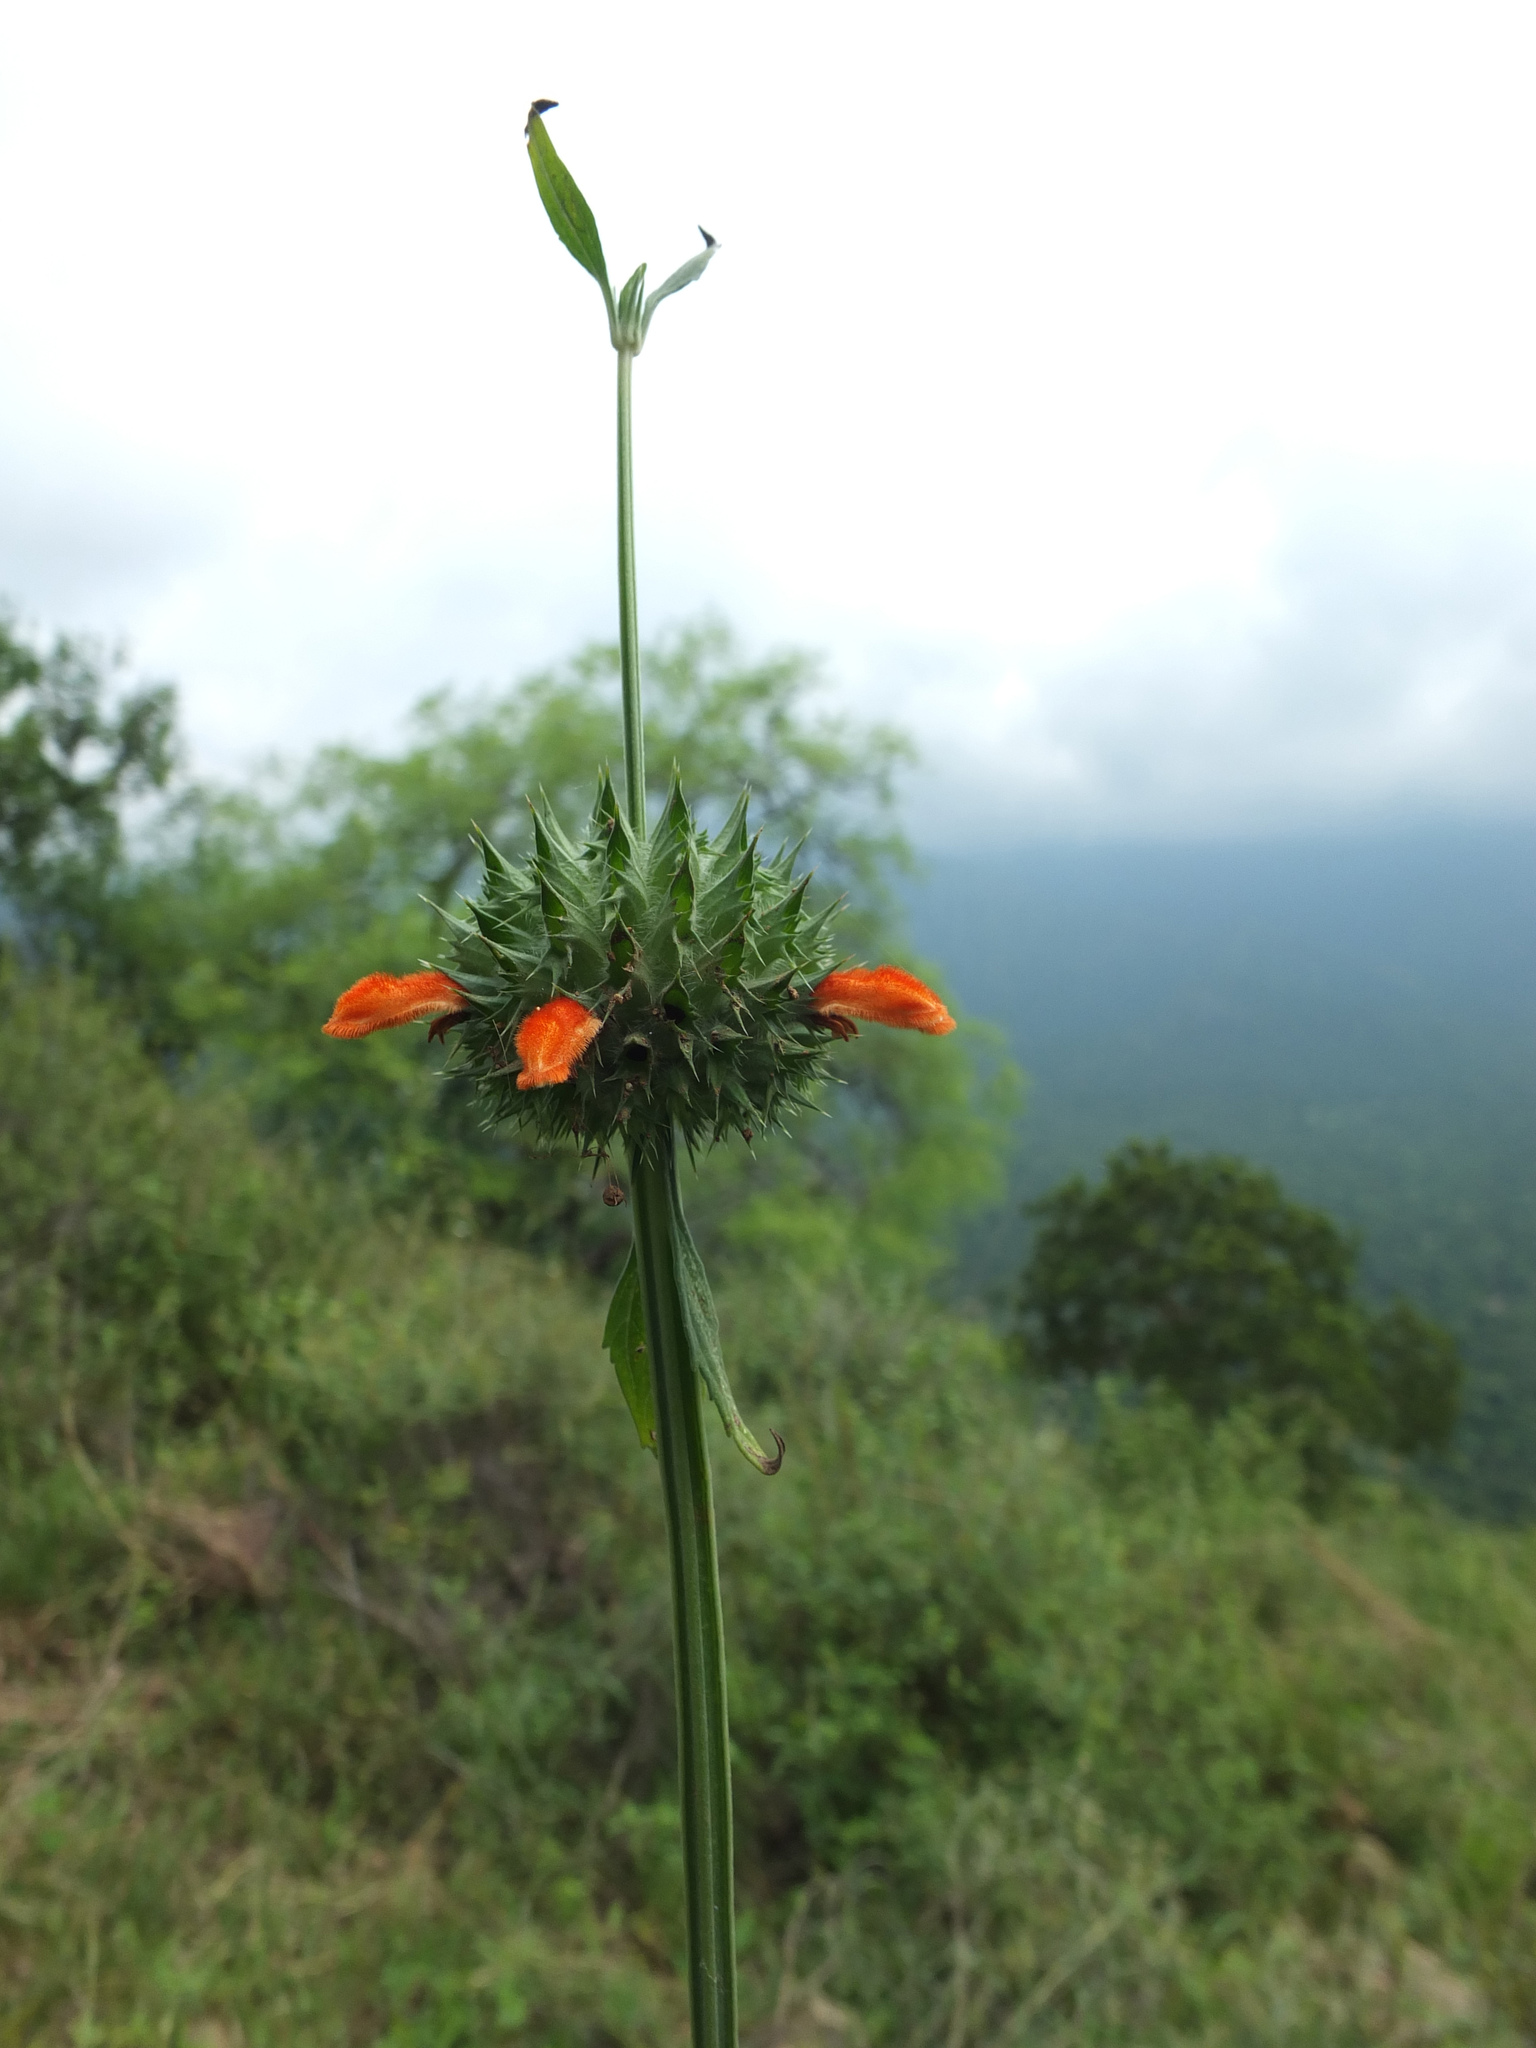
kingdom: Plantae
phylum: Tracheophyta
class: Magnoliopsida
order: Lamiales
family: Lamiaceae
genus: Leonotis
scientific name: Leonotis nepetifolia
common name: Christmas candlestick
